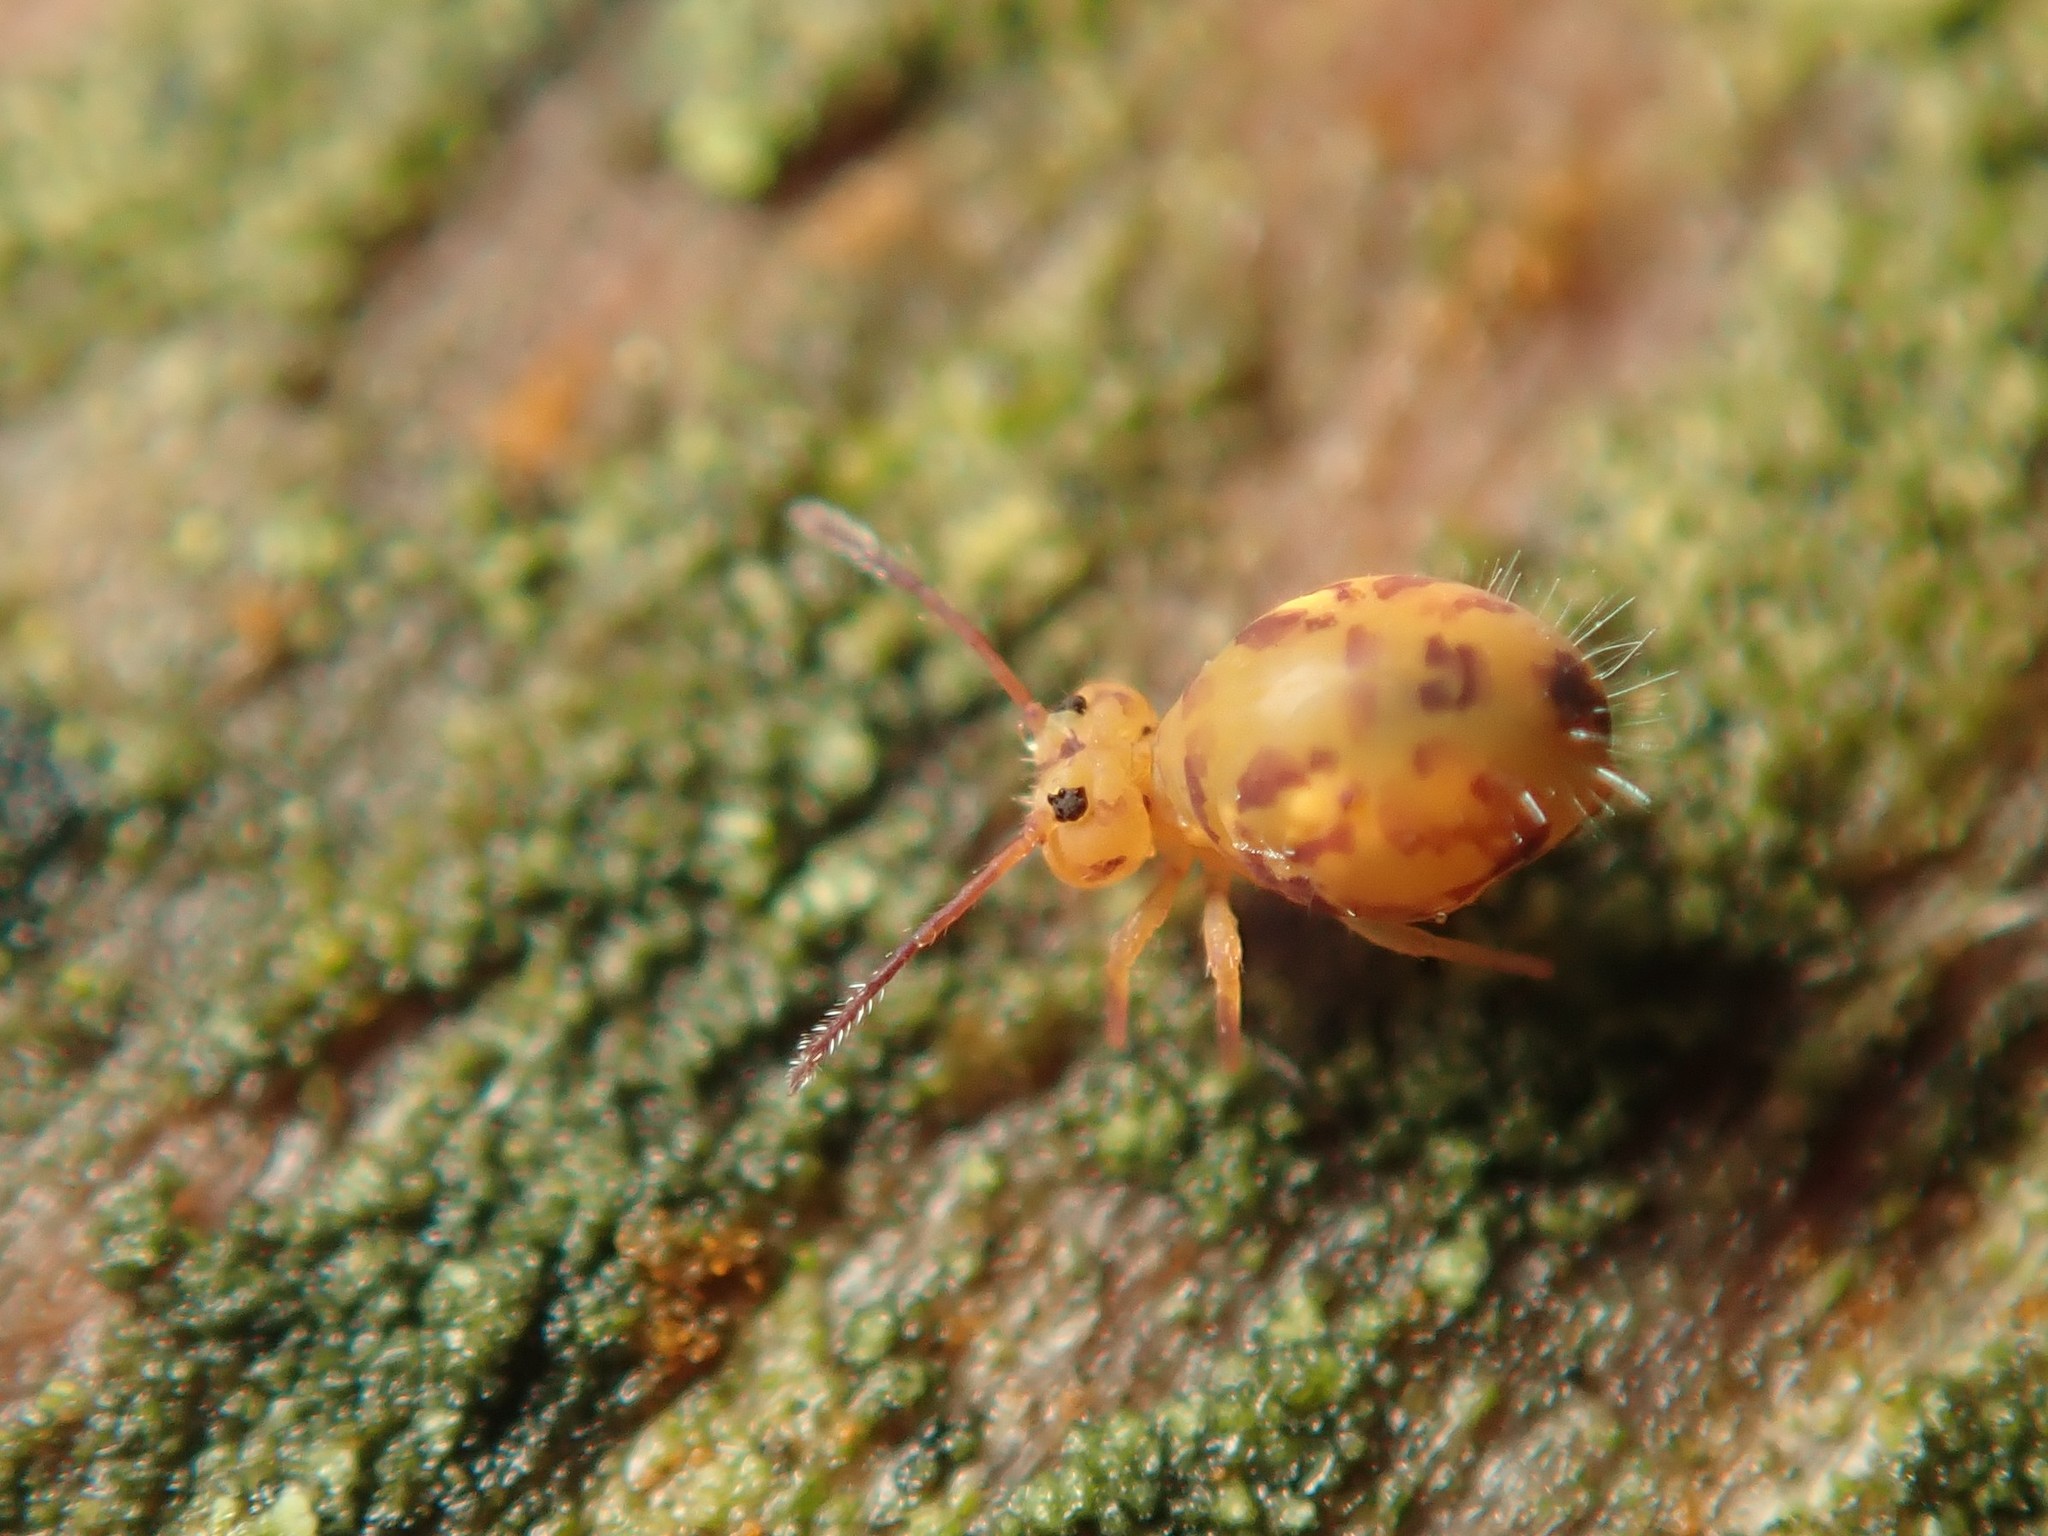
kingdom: Animalia
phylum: Arthropoda
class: Collembola
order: Symphypleona
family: Dicyrtomidae
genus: Dicyrtomina
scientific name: Dicyrtomina ornata
